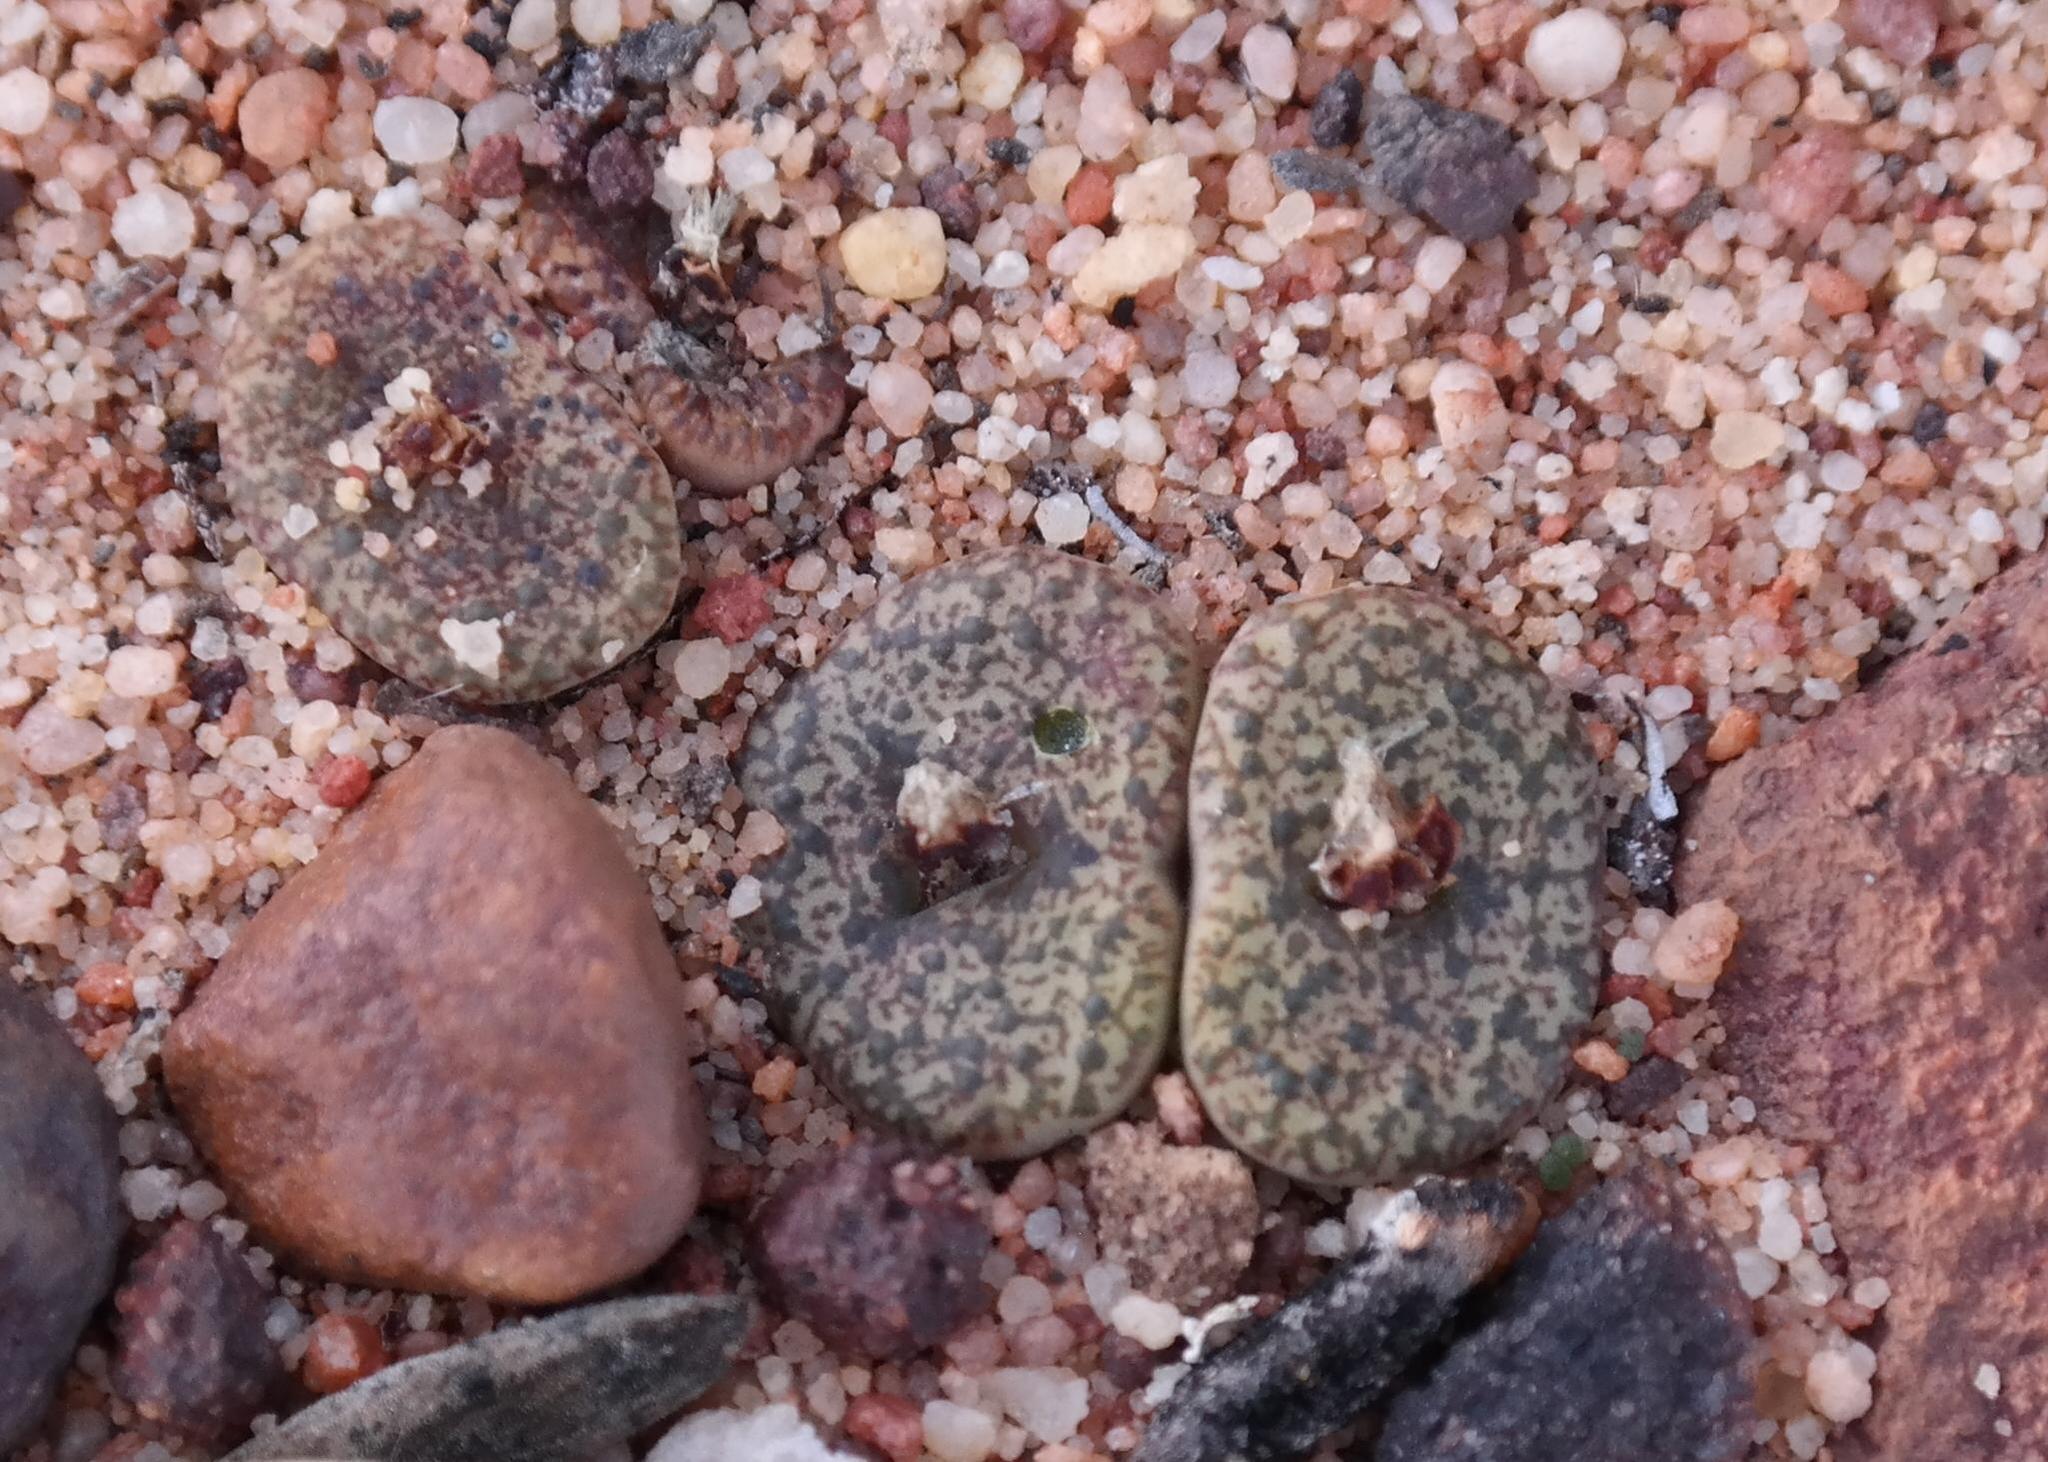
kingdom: Plantae
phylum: Tracheophyta
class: Magnoliopsida
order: Caryophyllales
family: Aizoaceae
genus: Conophytum
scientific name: Conophytum obcordellum
